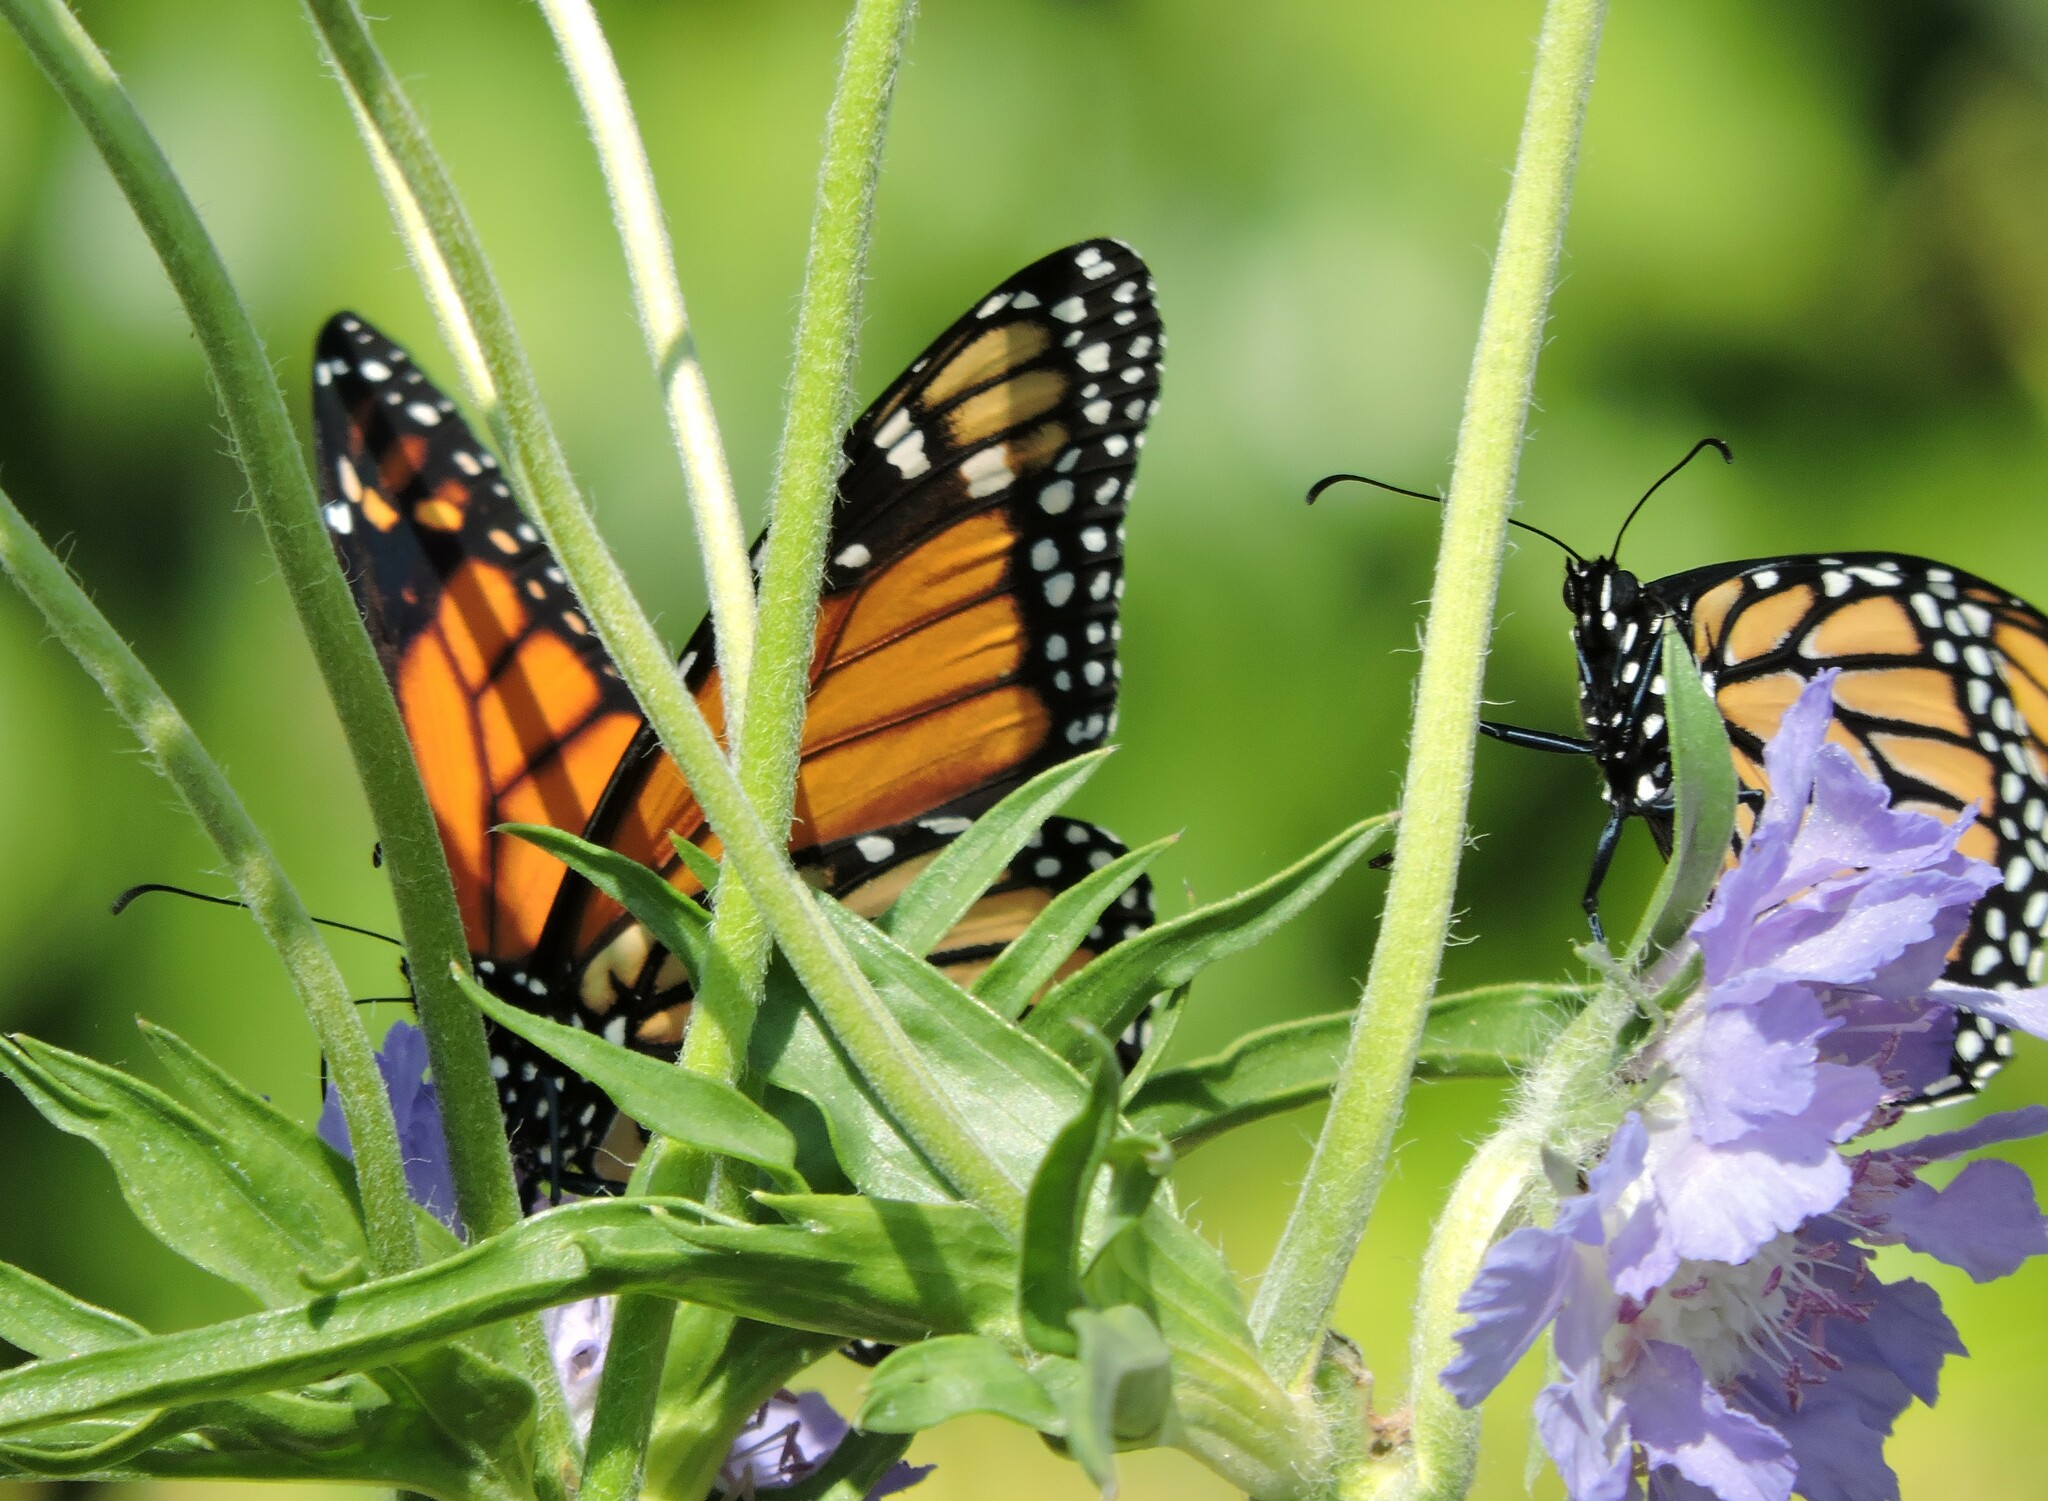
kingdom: Animalia
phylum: Arthropoda
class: Insecta
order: Lepidoptera
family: Nymphalidae
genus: Danaus
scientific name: Danaus plexippus
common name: Monarch
